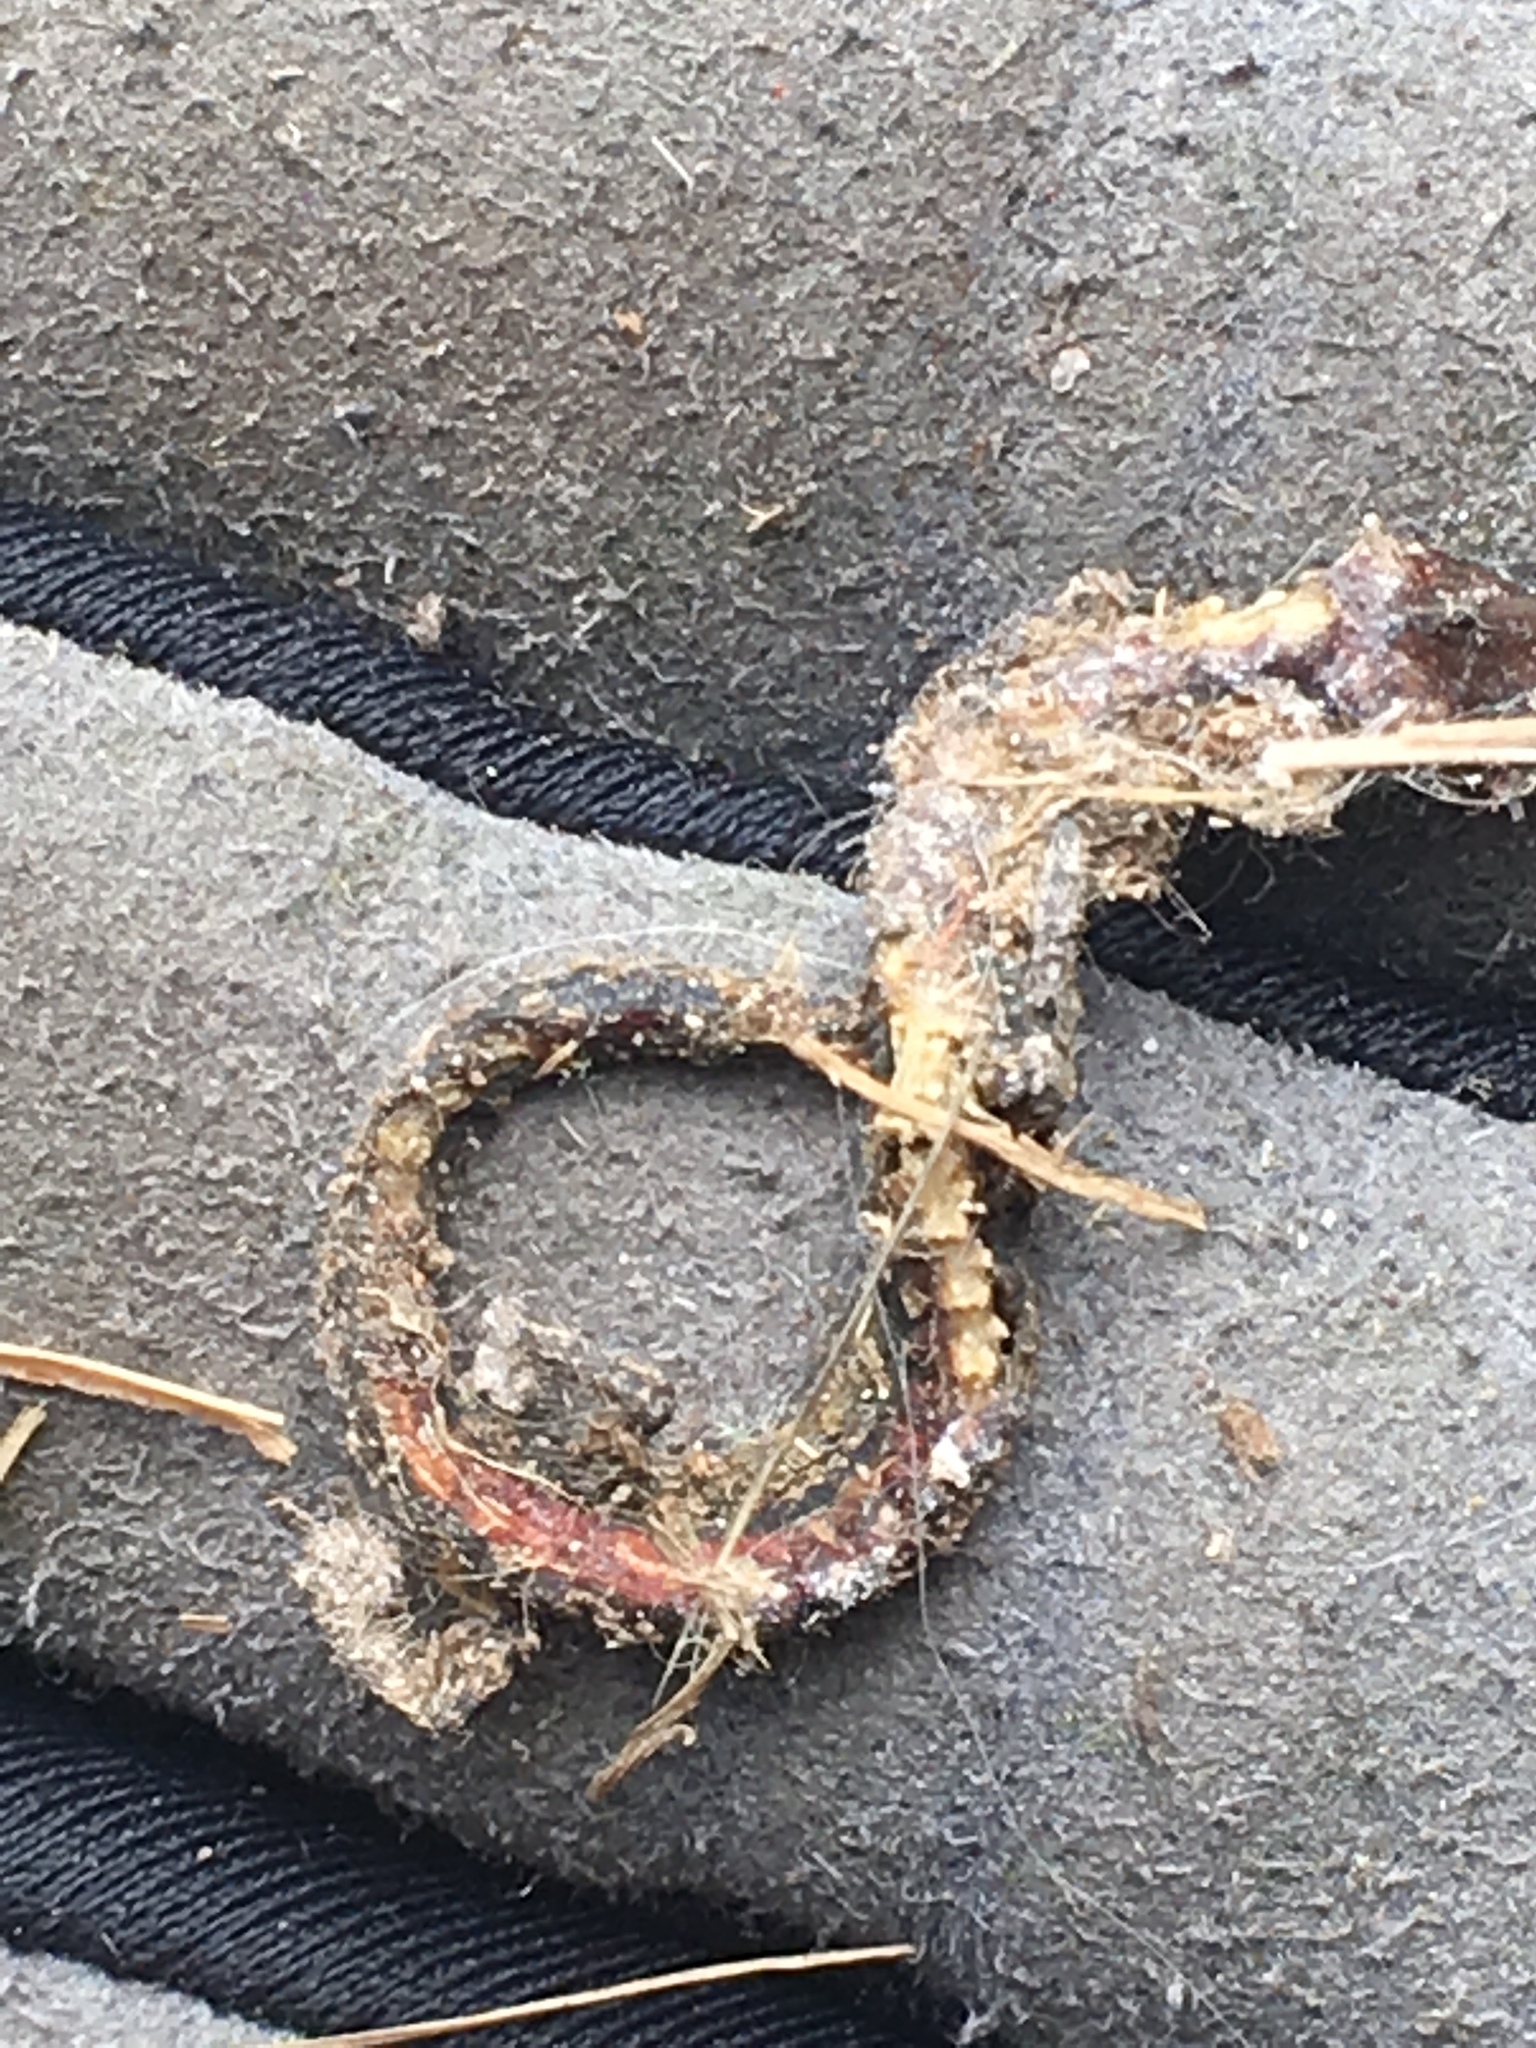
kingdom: Animalia
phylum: Chordata
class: Amphibia
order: Caudata
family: Plethodontidae
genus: Plethodon
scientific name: Plethodon cinereus
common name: Redback salamander
